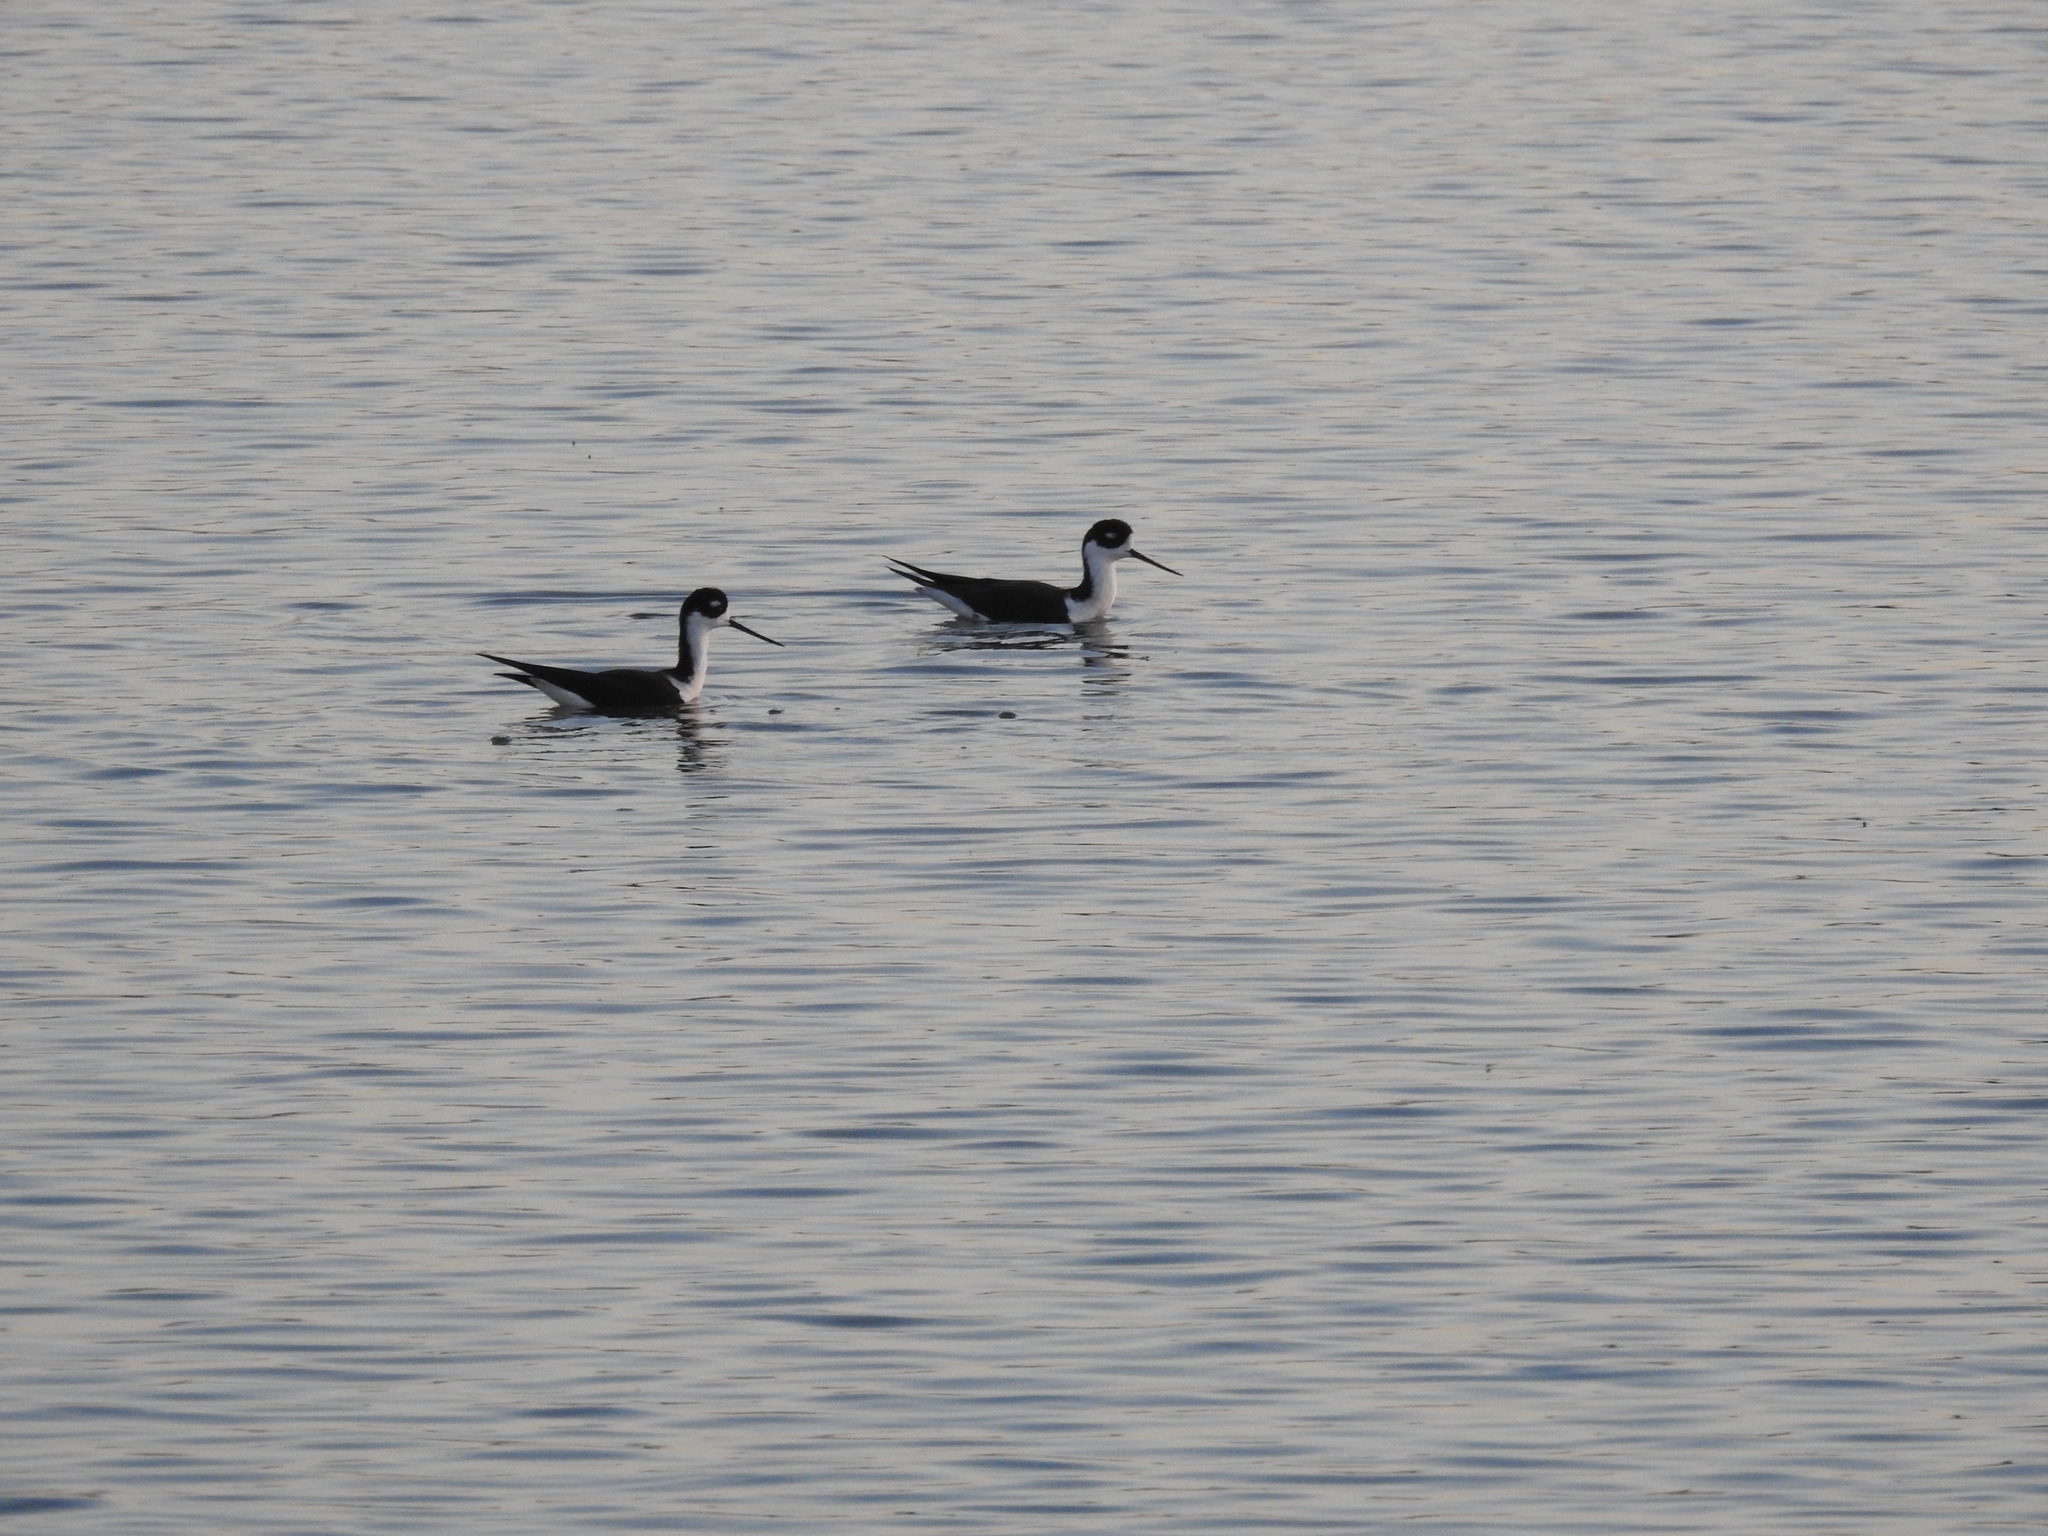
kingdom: Animalia
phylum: Chordata
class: Aves
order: Charadriiformes
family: Recurvirostridae
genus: Himantopus
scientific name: Himantopus mexicanus
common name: Black-necked stilt
